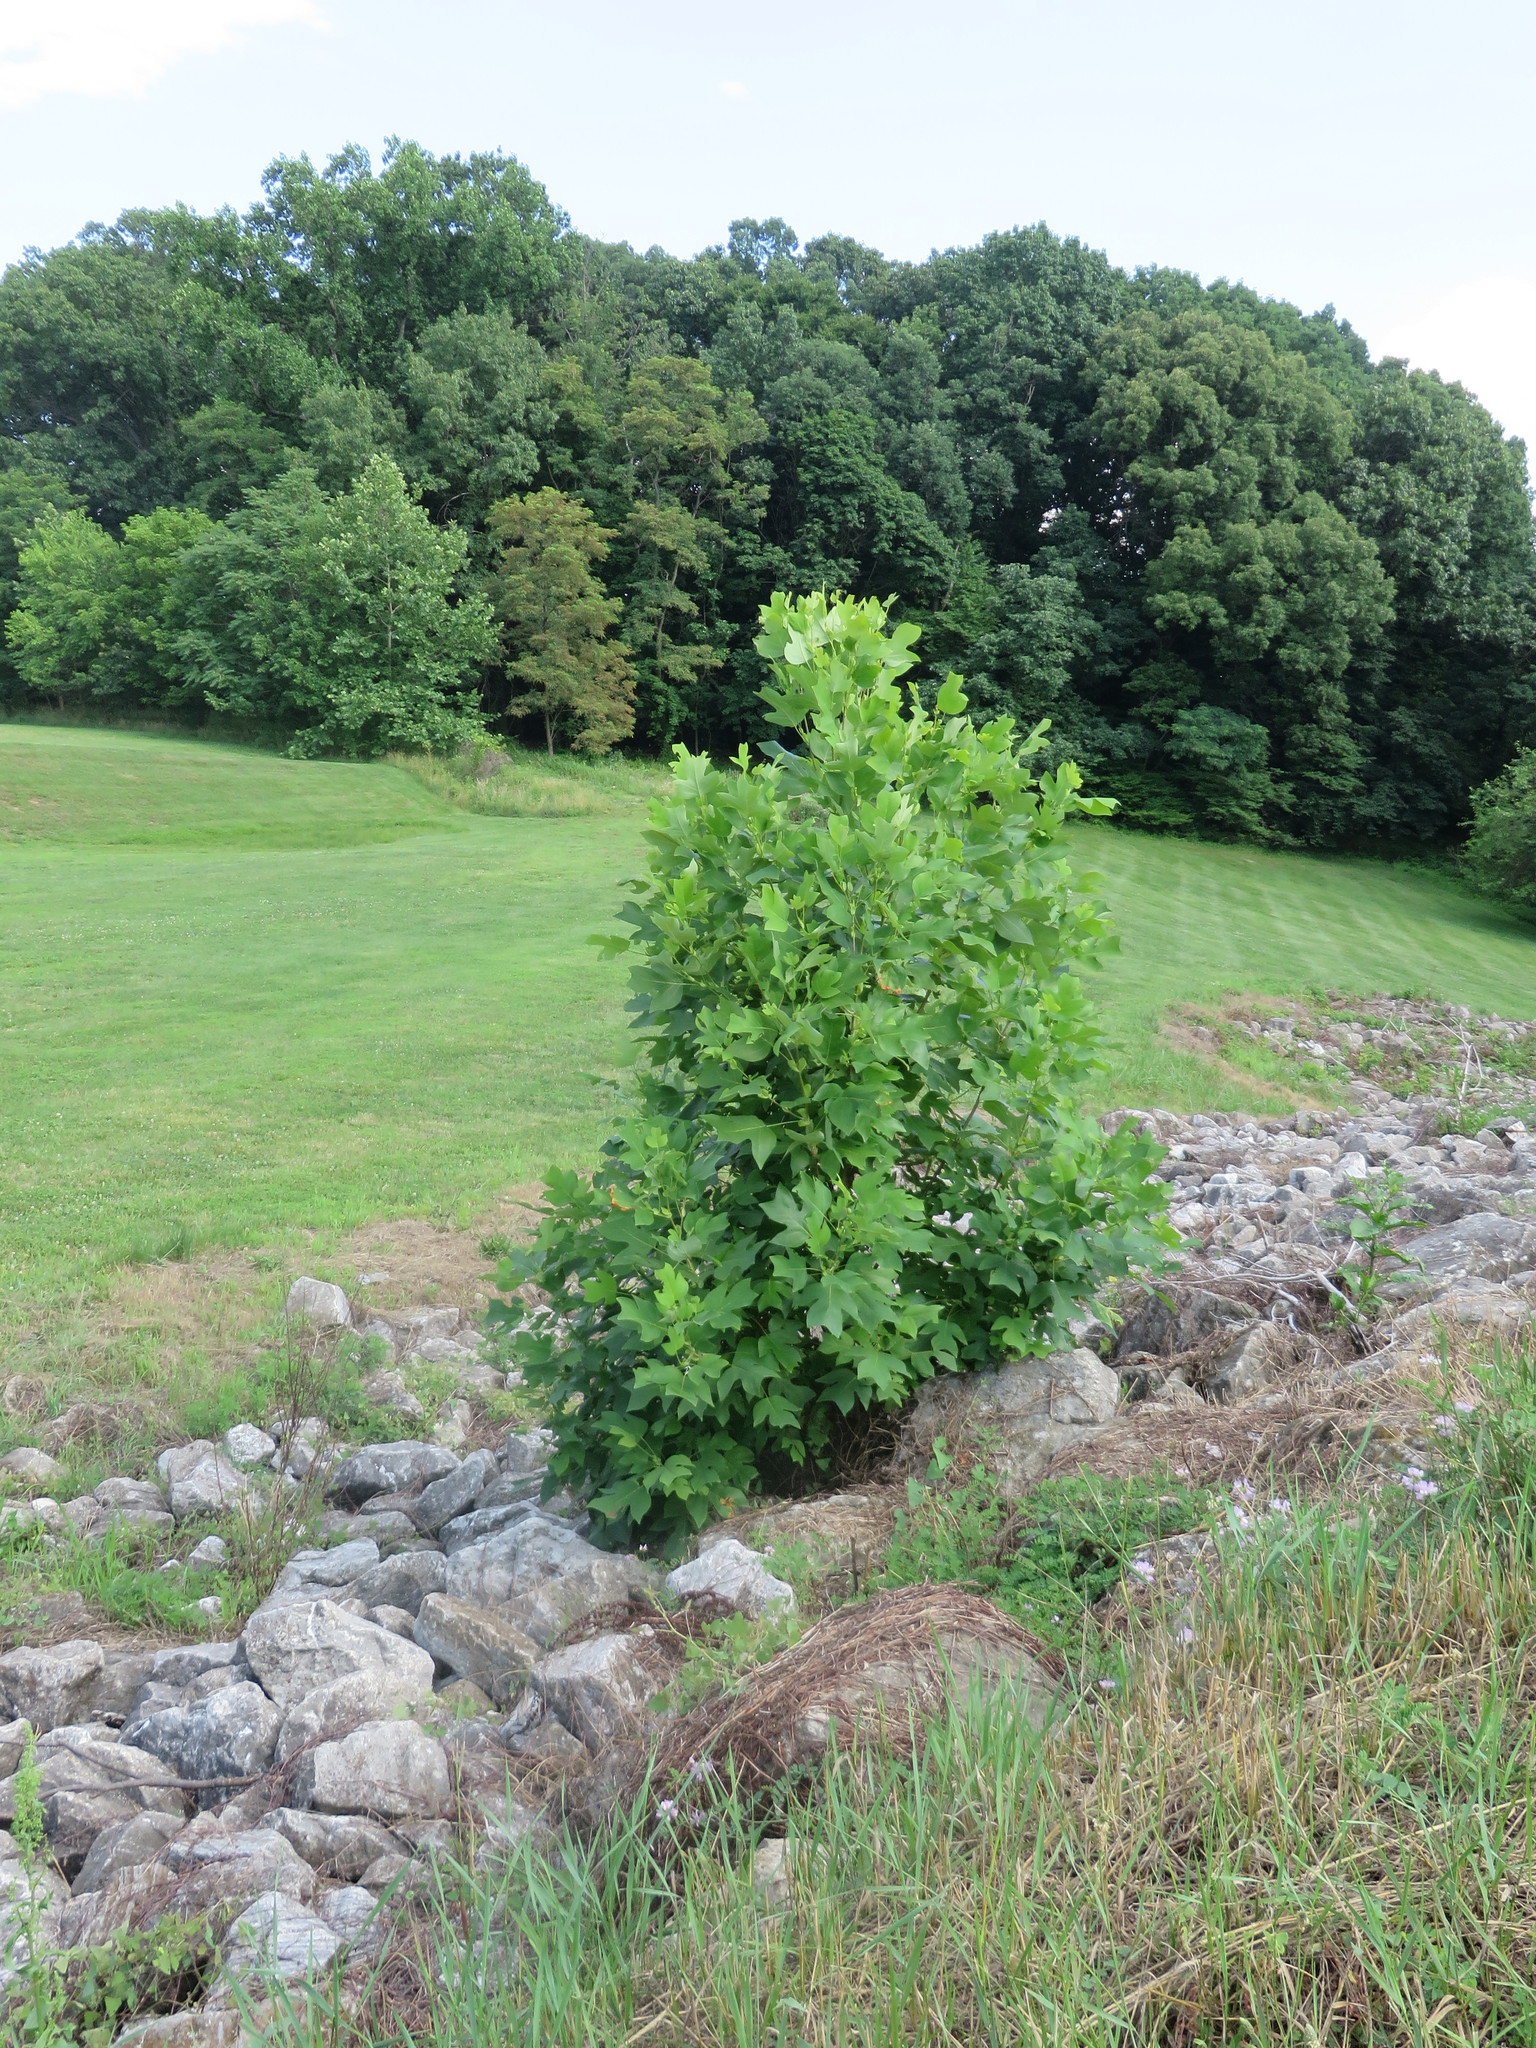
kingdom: Plantae
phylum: Tracheophyta
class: Magnoliopsida
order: Magnoliales
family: Magnoliaceae
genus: Liriodendron
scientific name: Liriodendron tulipifera
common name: Tulip tree
